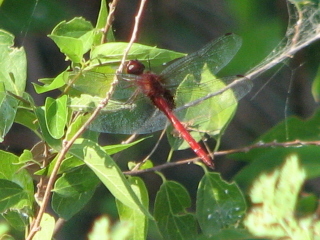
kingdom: Animalia
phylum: Arthropoda
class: Insecta
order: Odonata
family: Libellulidae
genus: Tauriphila
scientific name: Tauriphila argo
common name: Arch-tipped glider
